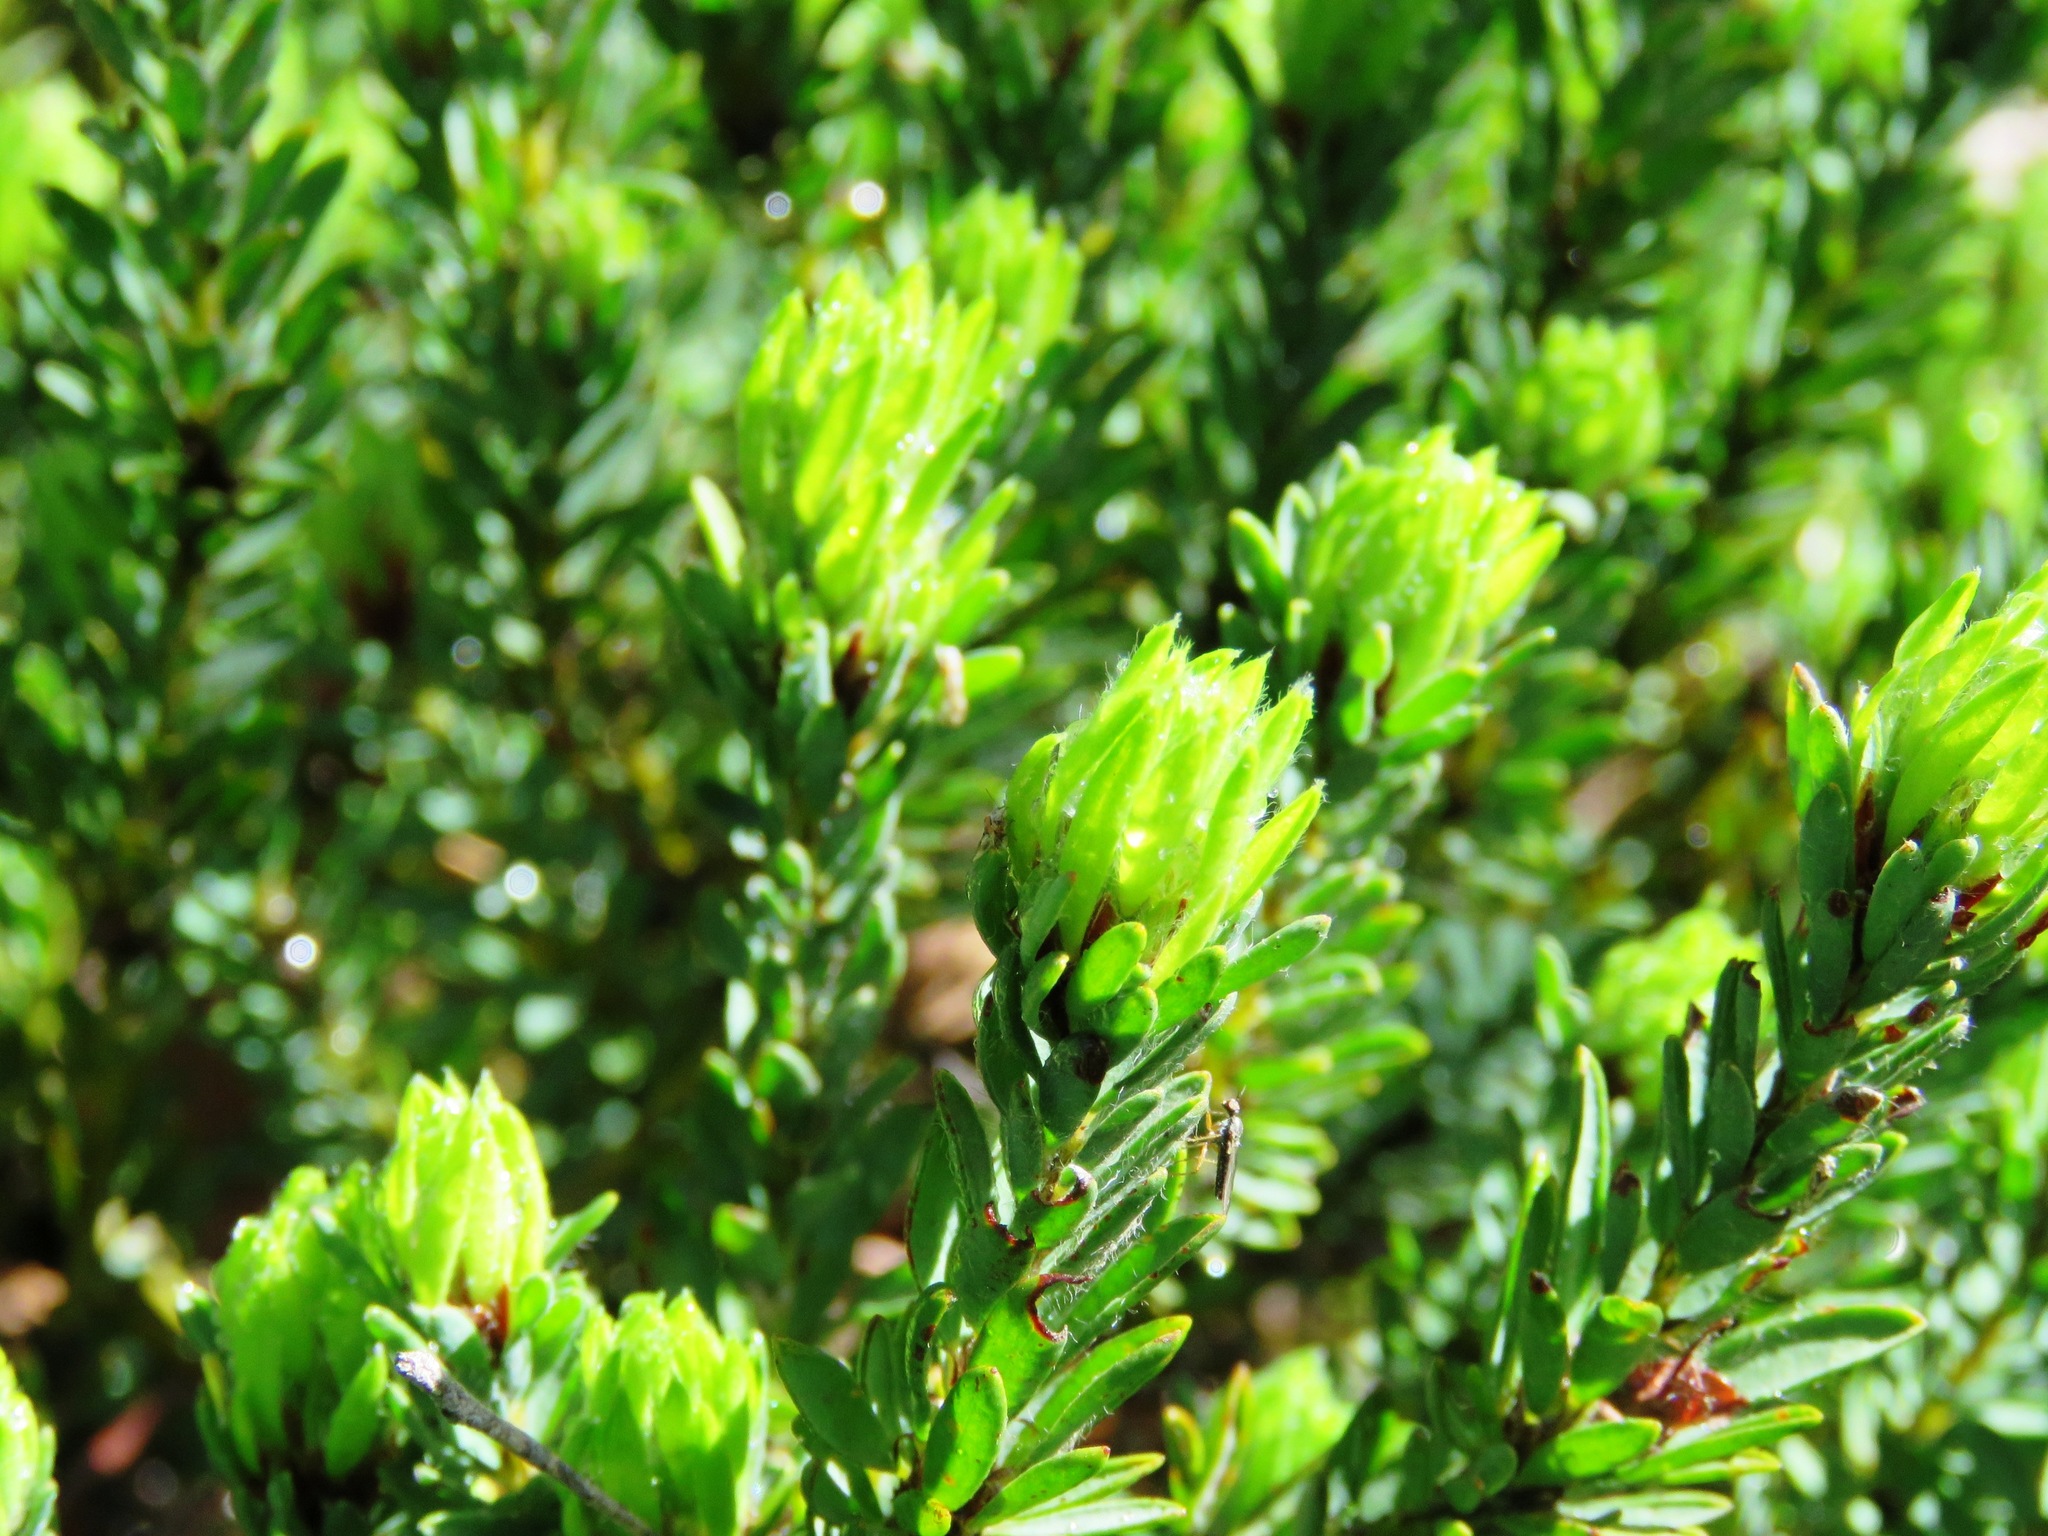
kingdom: Plantae
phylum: Tracheophyta
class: Magnoliopsida
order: Fabales
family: Fabaceae
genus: Pultenaea
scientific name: Pultenaea humilis
